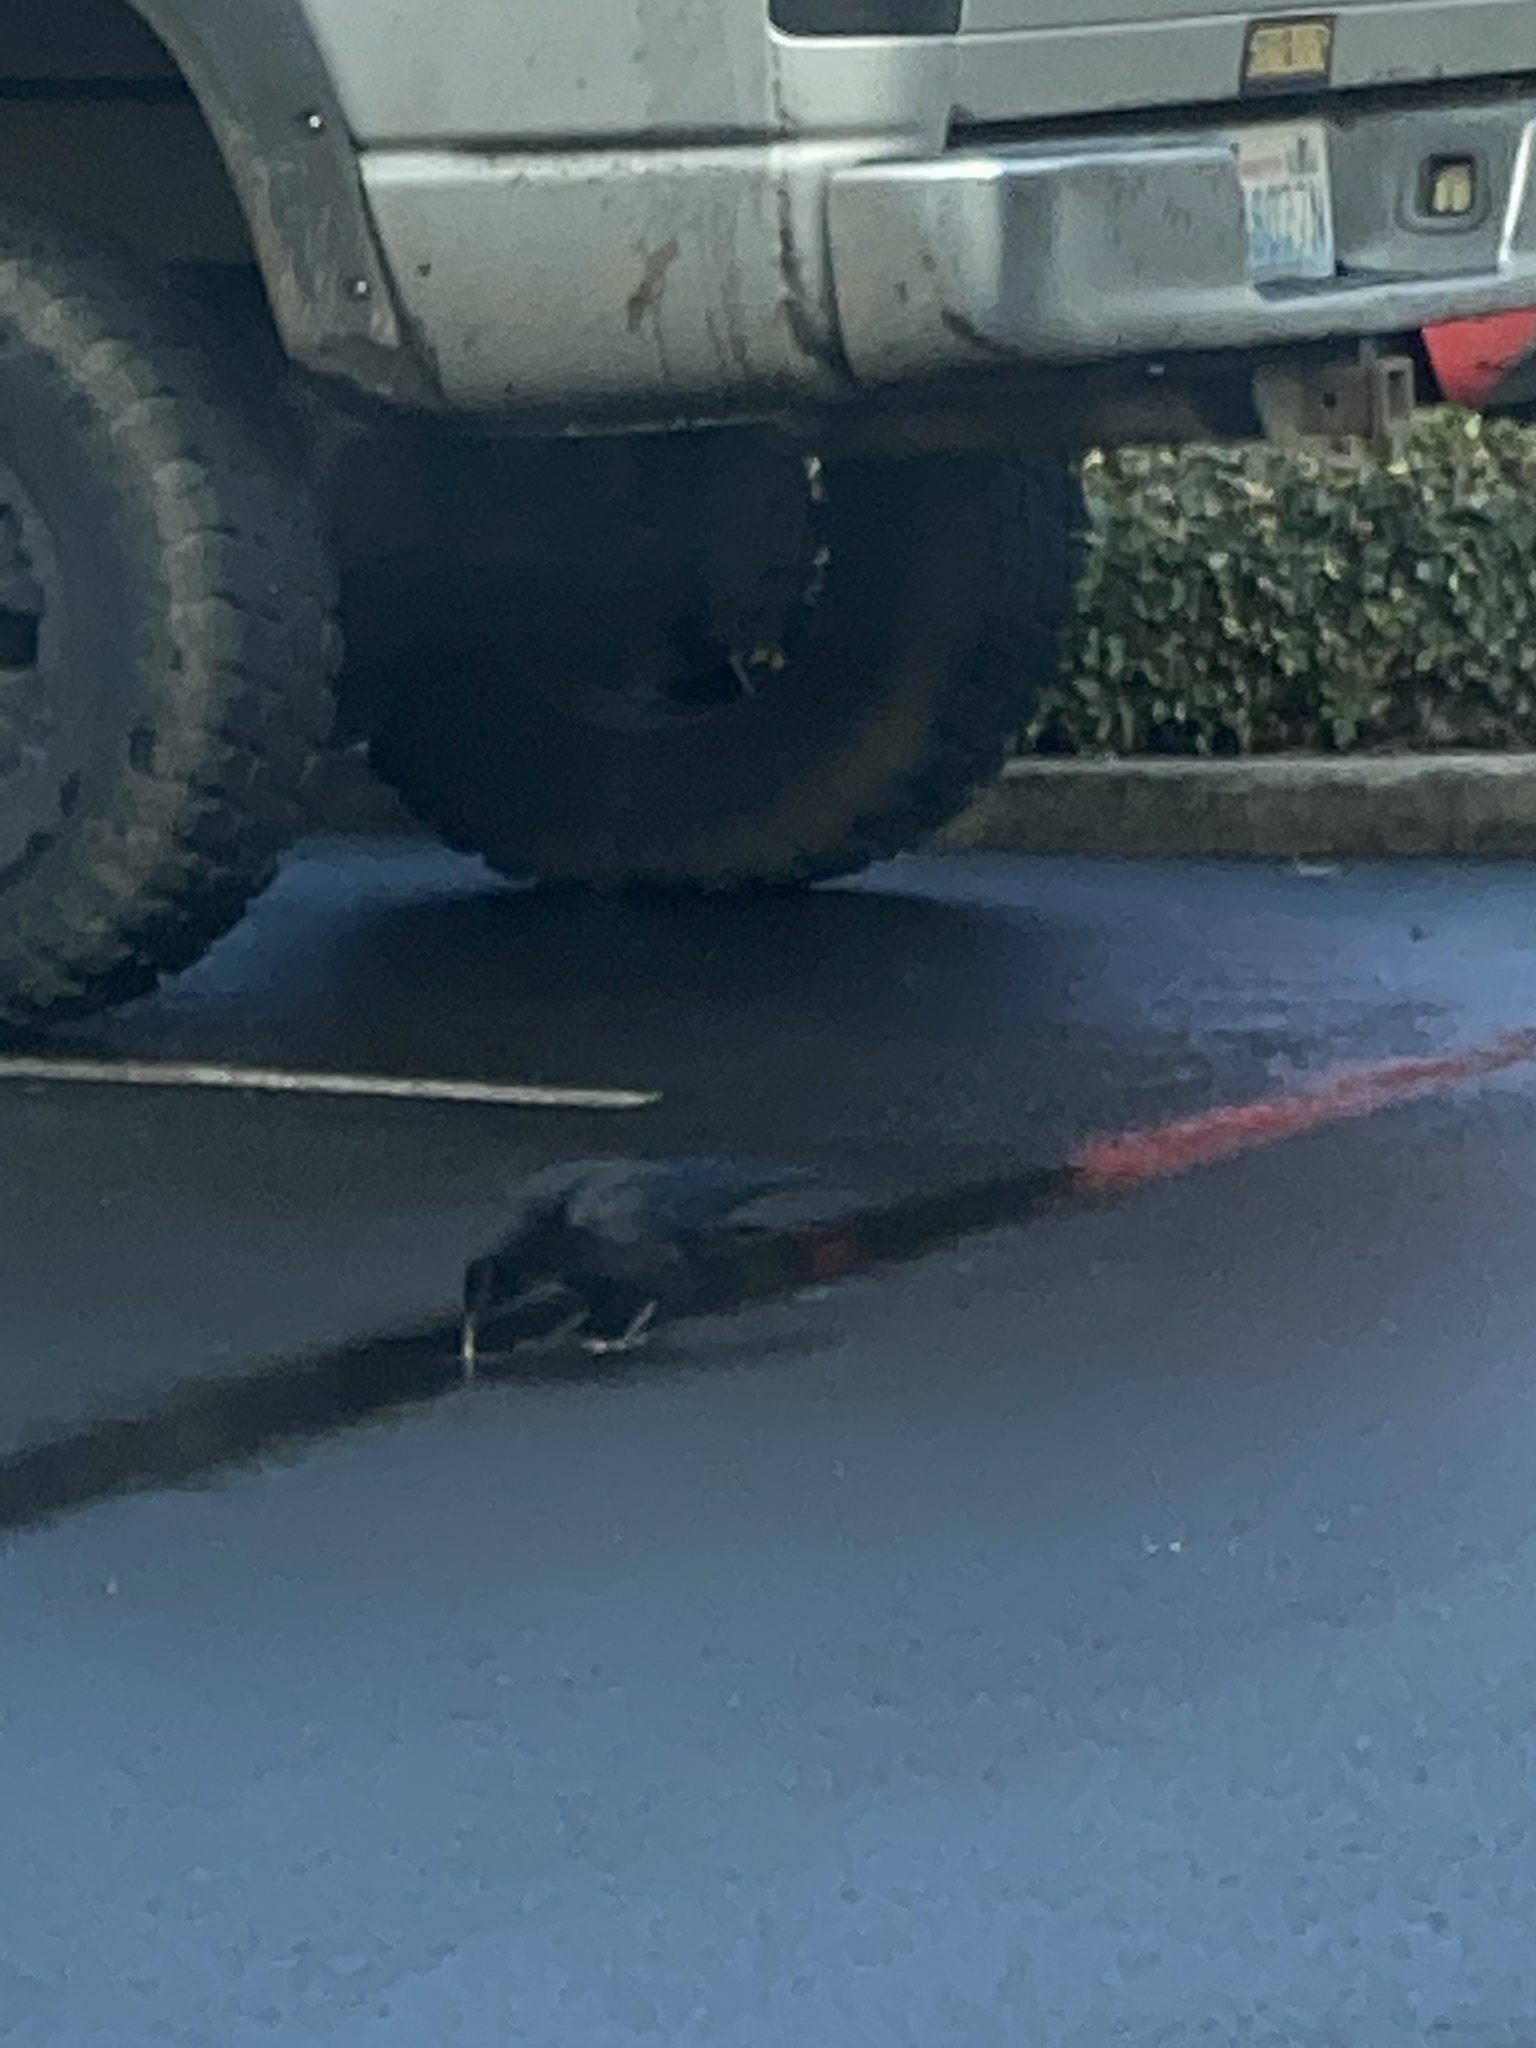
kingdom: Animalia
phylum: Chordata
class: Aves
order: Passeriformes
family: Corvidae
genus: Corvus
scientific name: Corvus brachyrhynchos
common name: American crow
